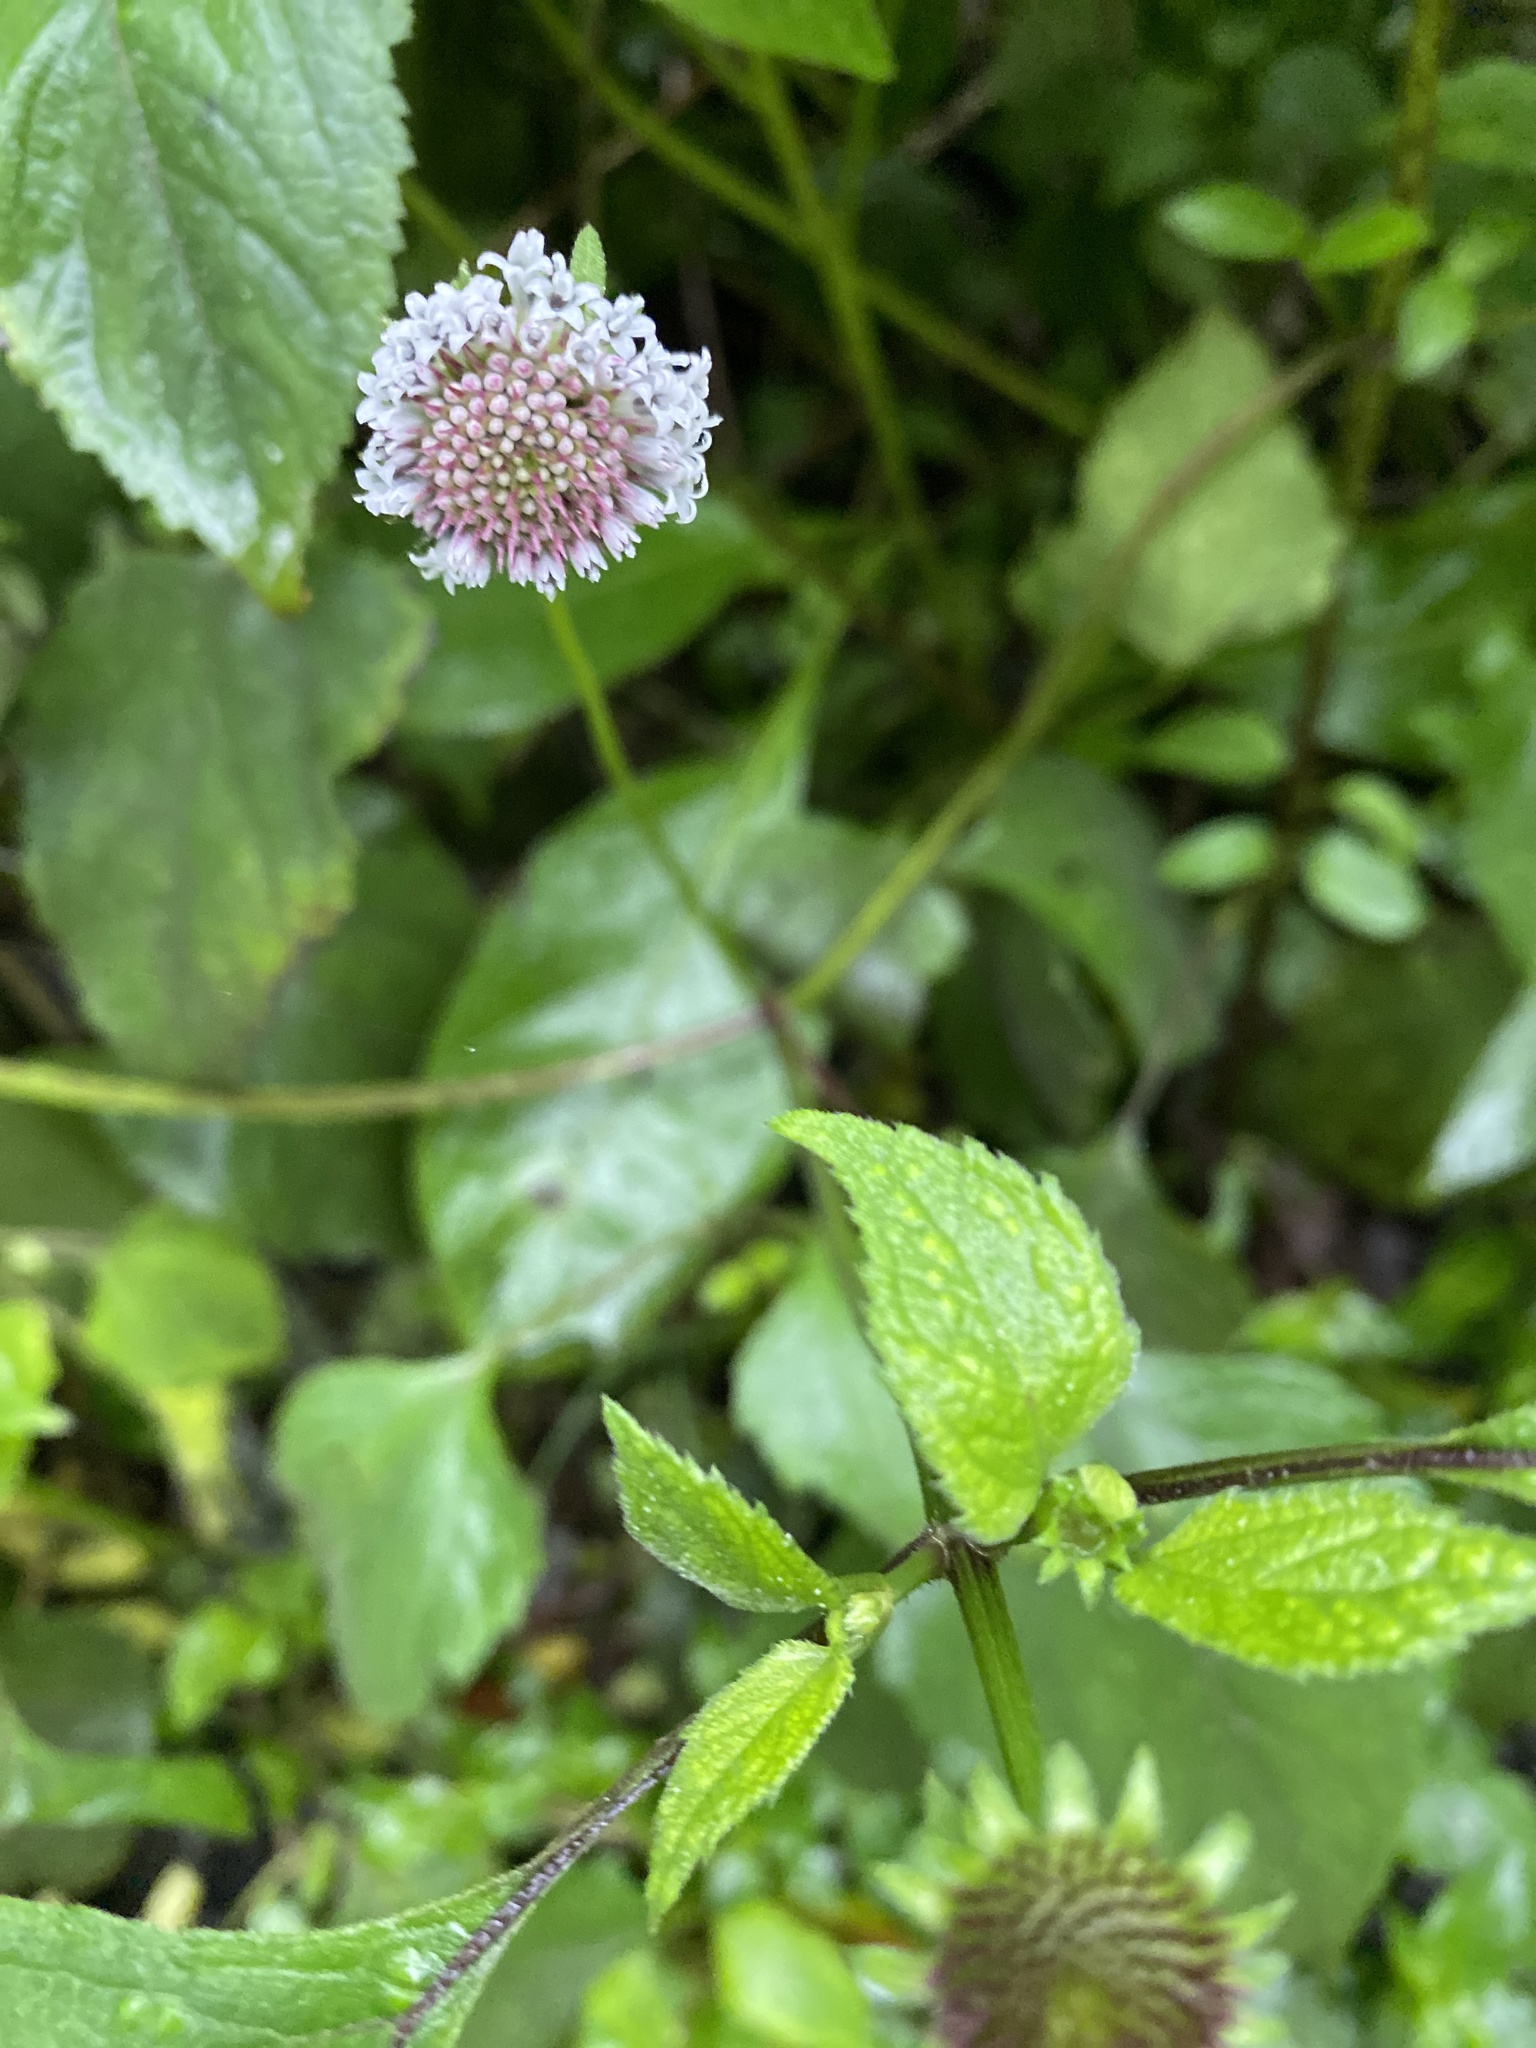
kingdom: Plantae
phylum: Tracheophyta
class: Magnoliopsida
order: Asterales
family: Asteraceae
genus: Melanthera
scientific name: Melanthera nivea
